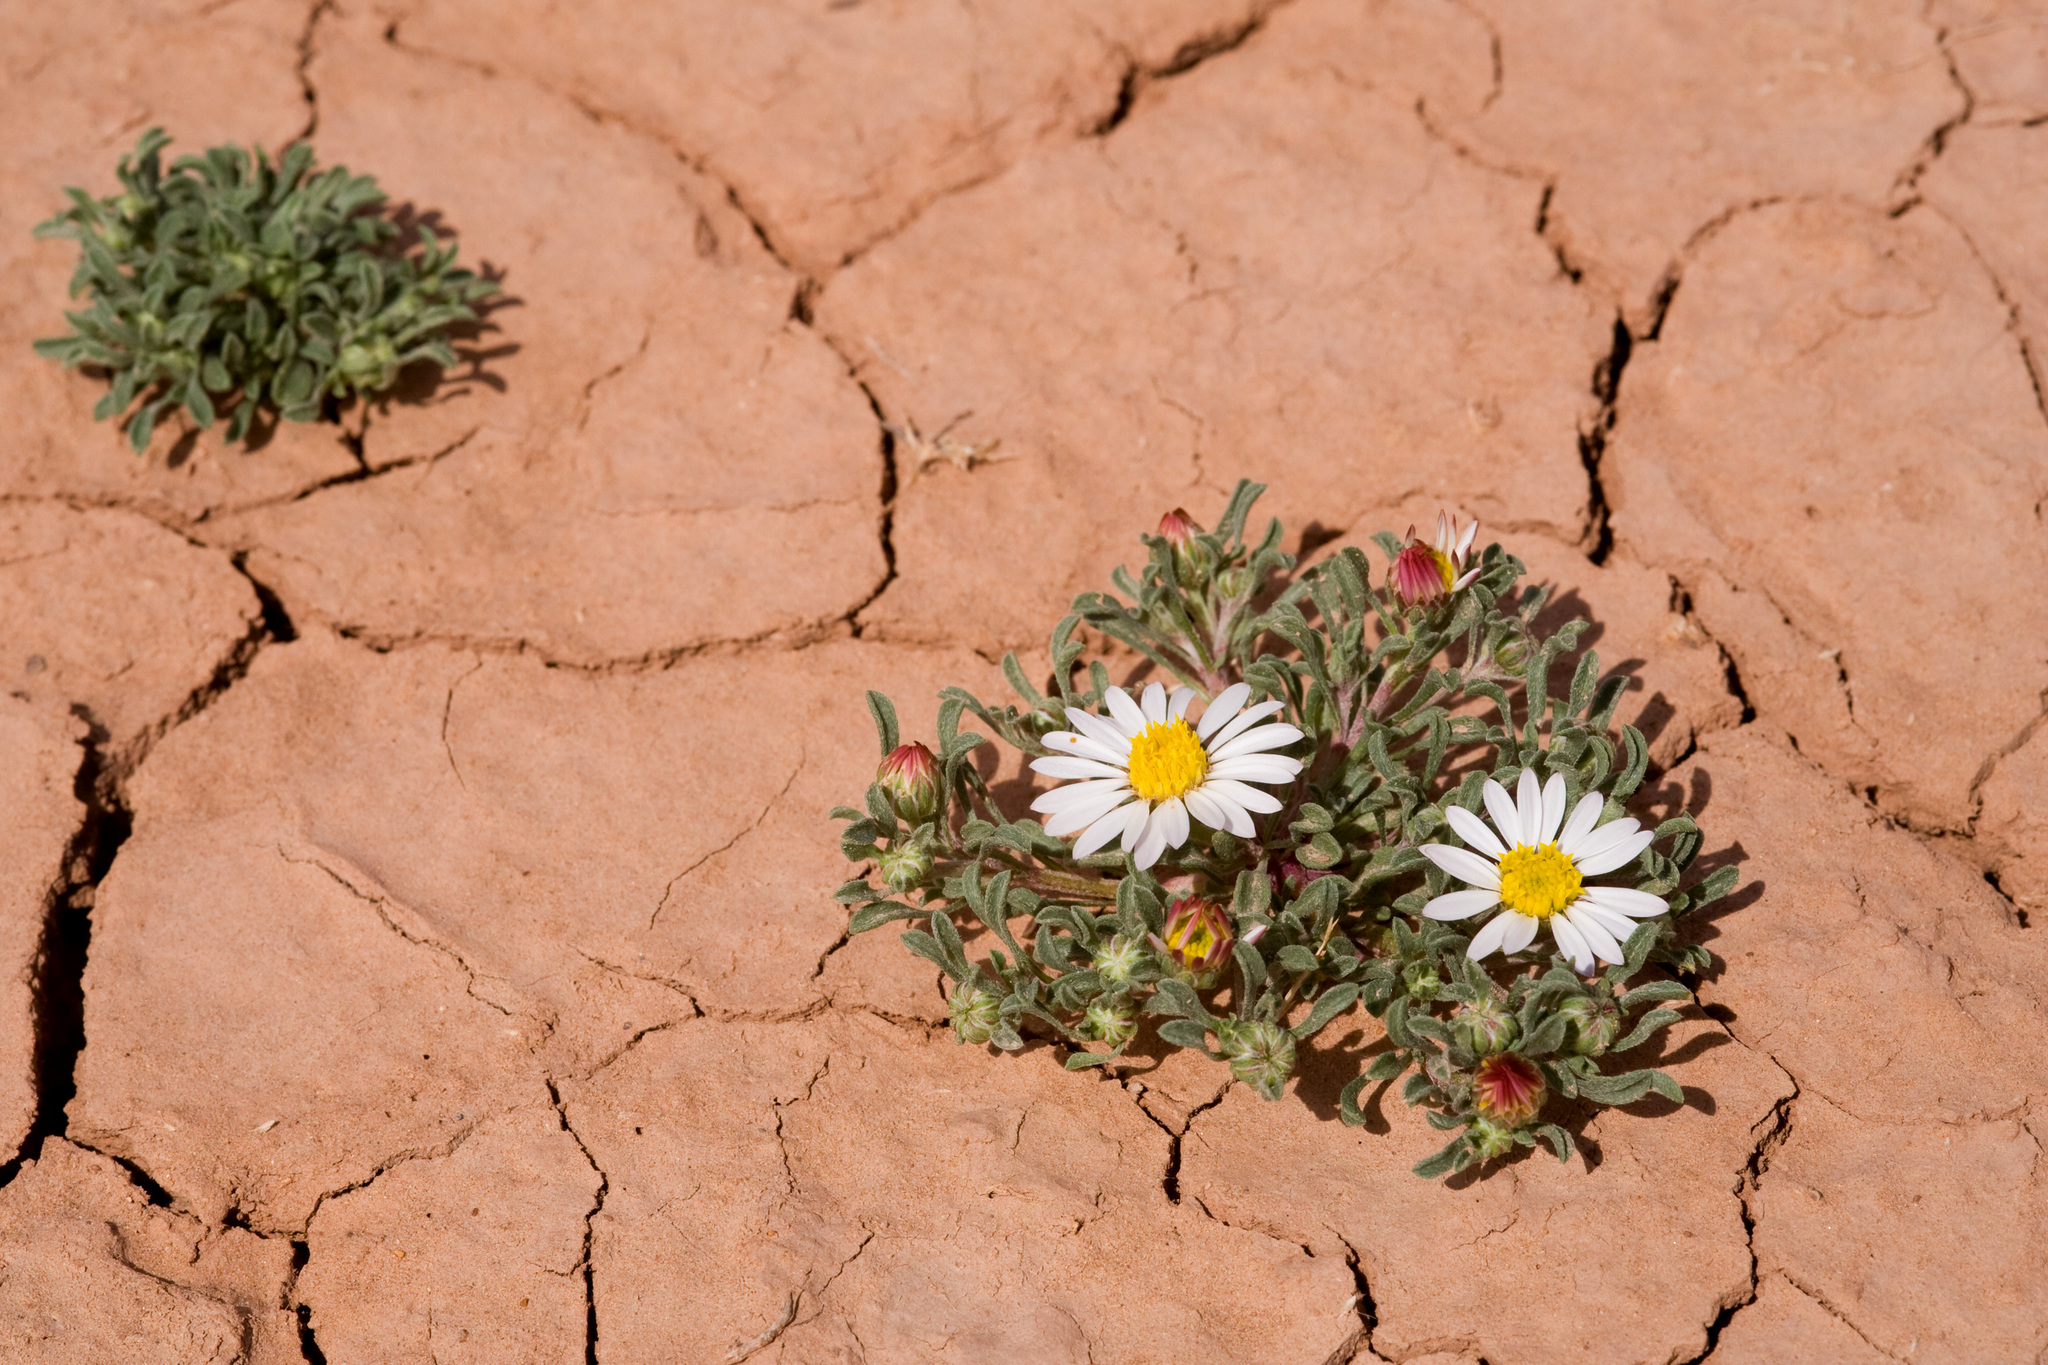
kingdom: Plantae
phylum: Tracheophyta
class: Magnoliopsida
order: Asterales
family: Asteraceae
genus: Townsendia
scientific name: Townsendia annua
